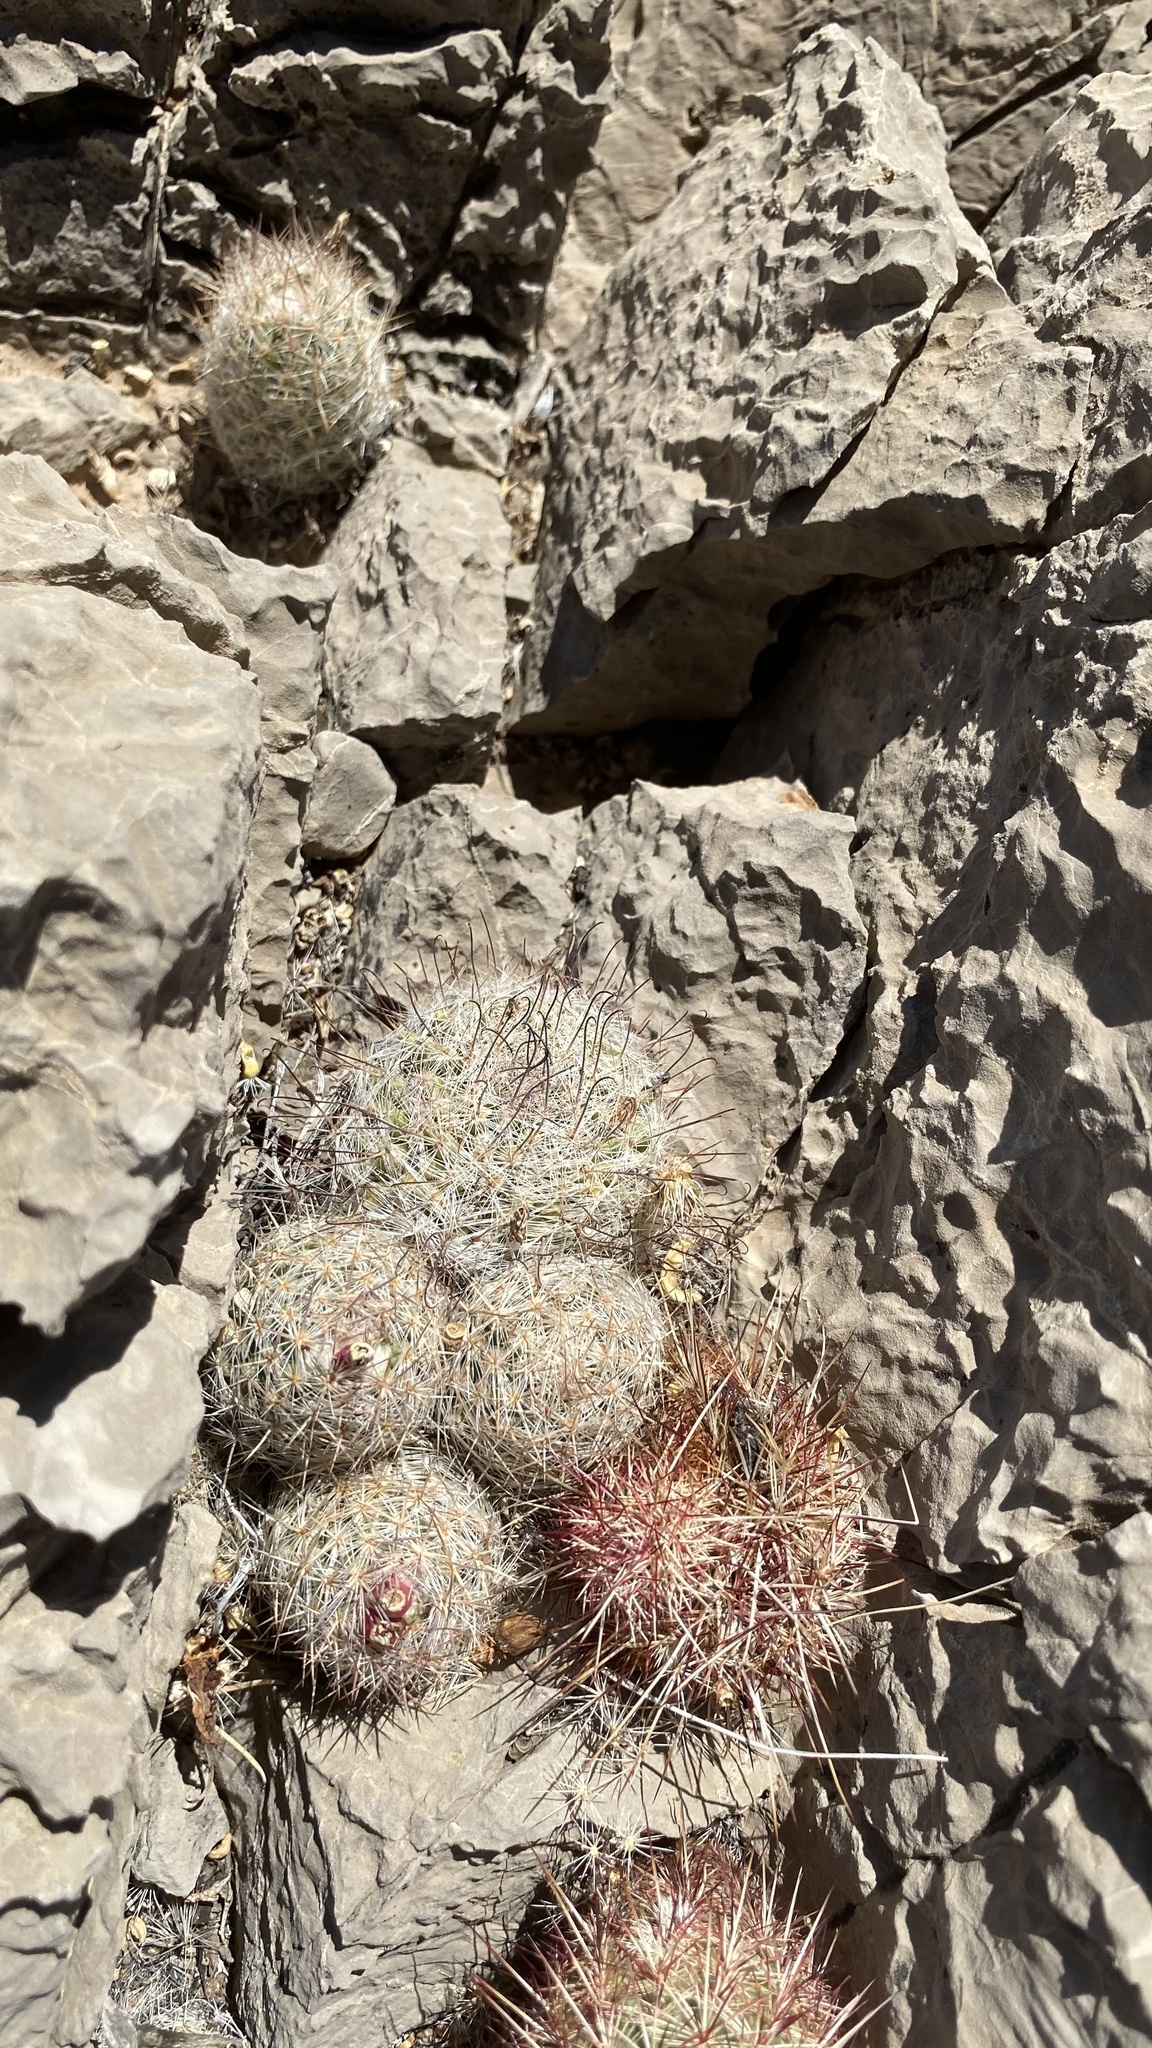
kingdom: Plantae
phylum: Tracheophyta
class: Magnoliopsida
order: Caryophyllales
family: Cactaceae
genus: Cochemiea
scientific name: Cochemiea grahamii
